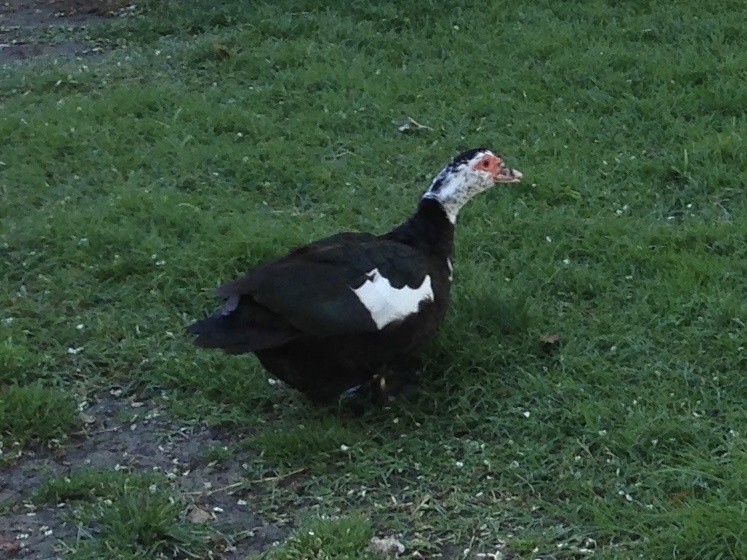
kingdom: Animalia
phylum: Chordata
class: Aves
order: Anseriformes
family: Anatidae
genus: Cairina
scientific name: Cairina moschata
